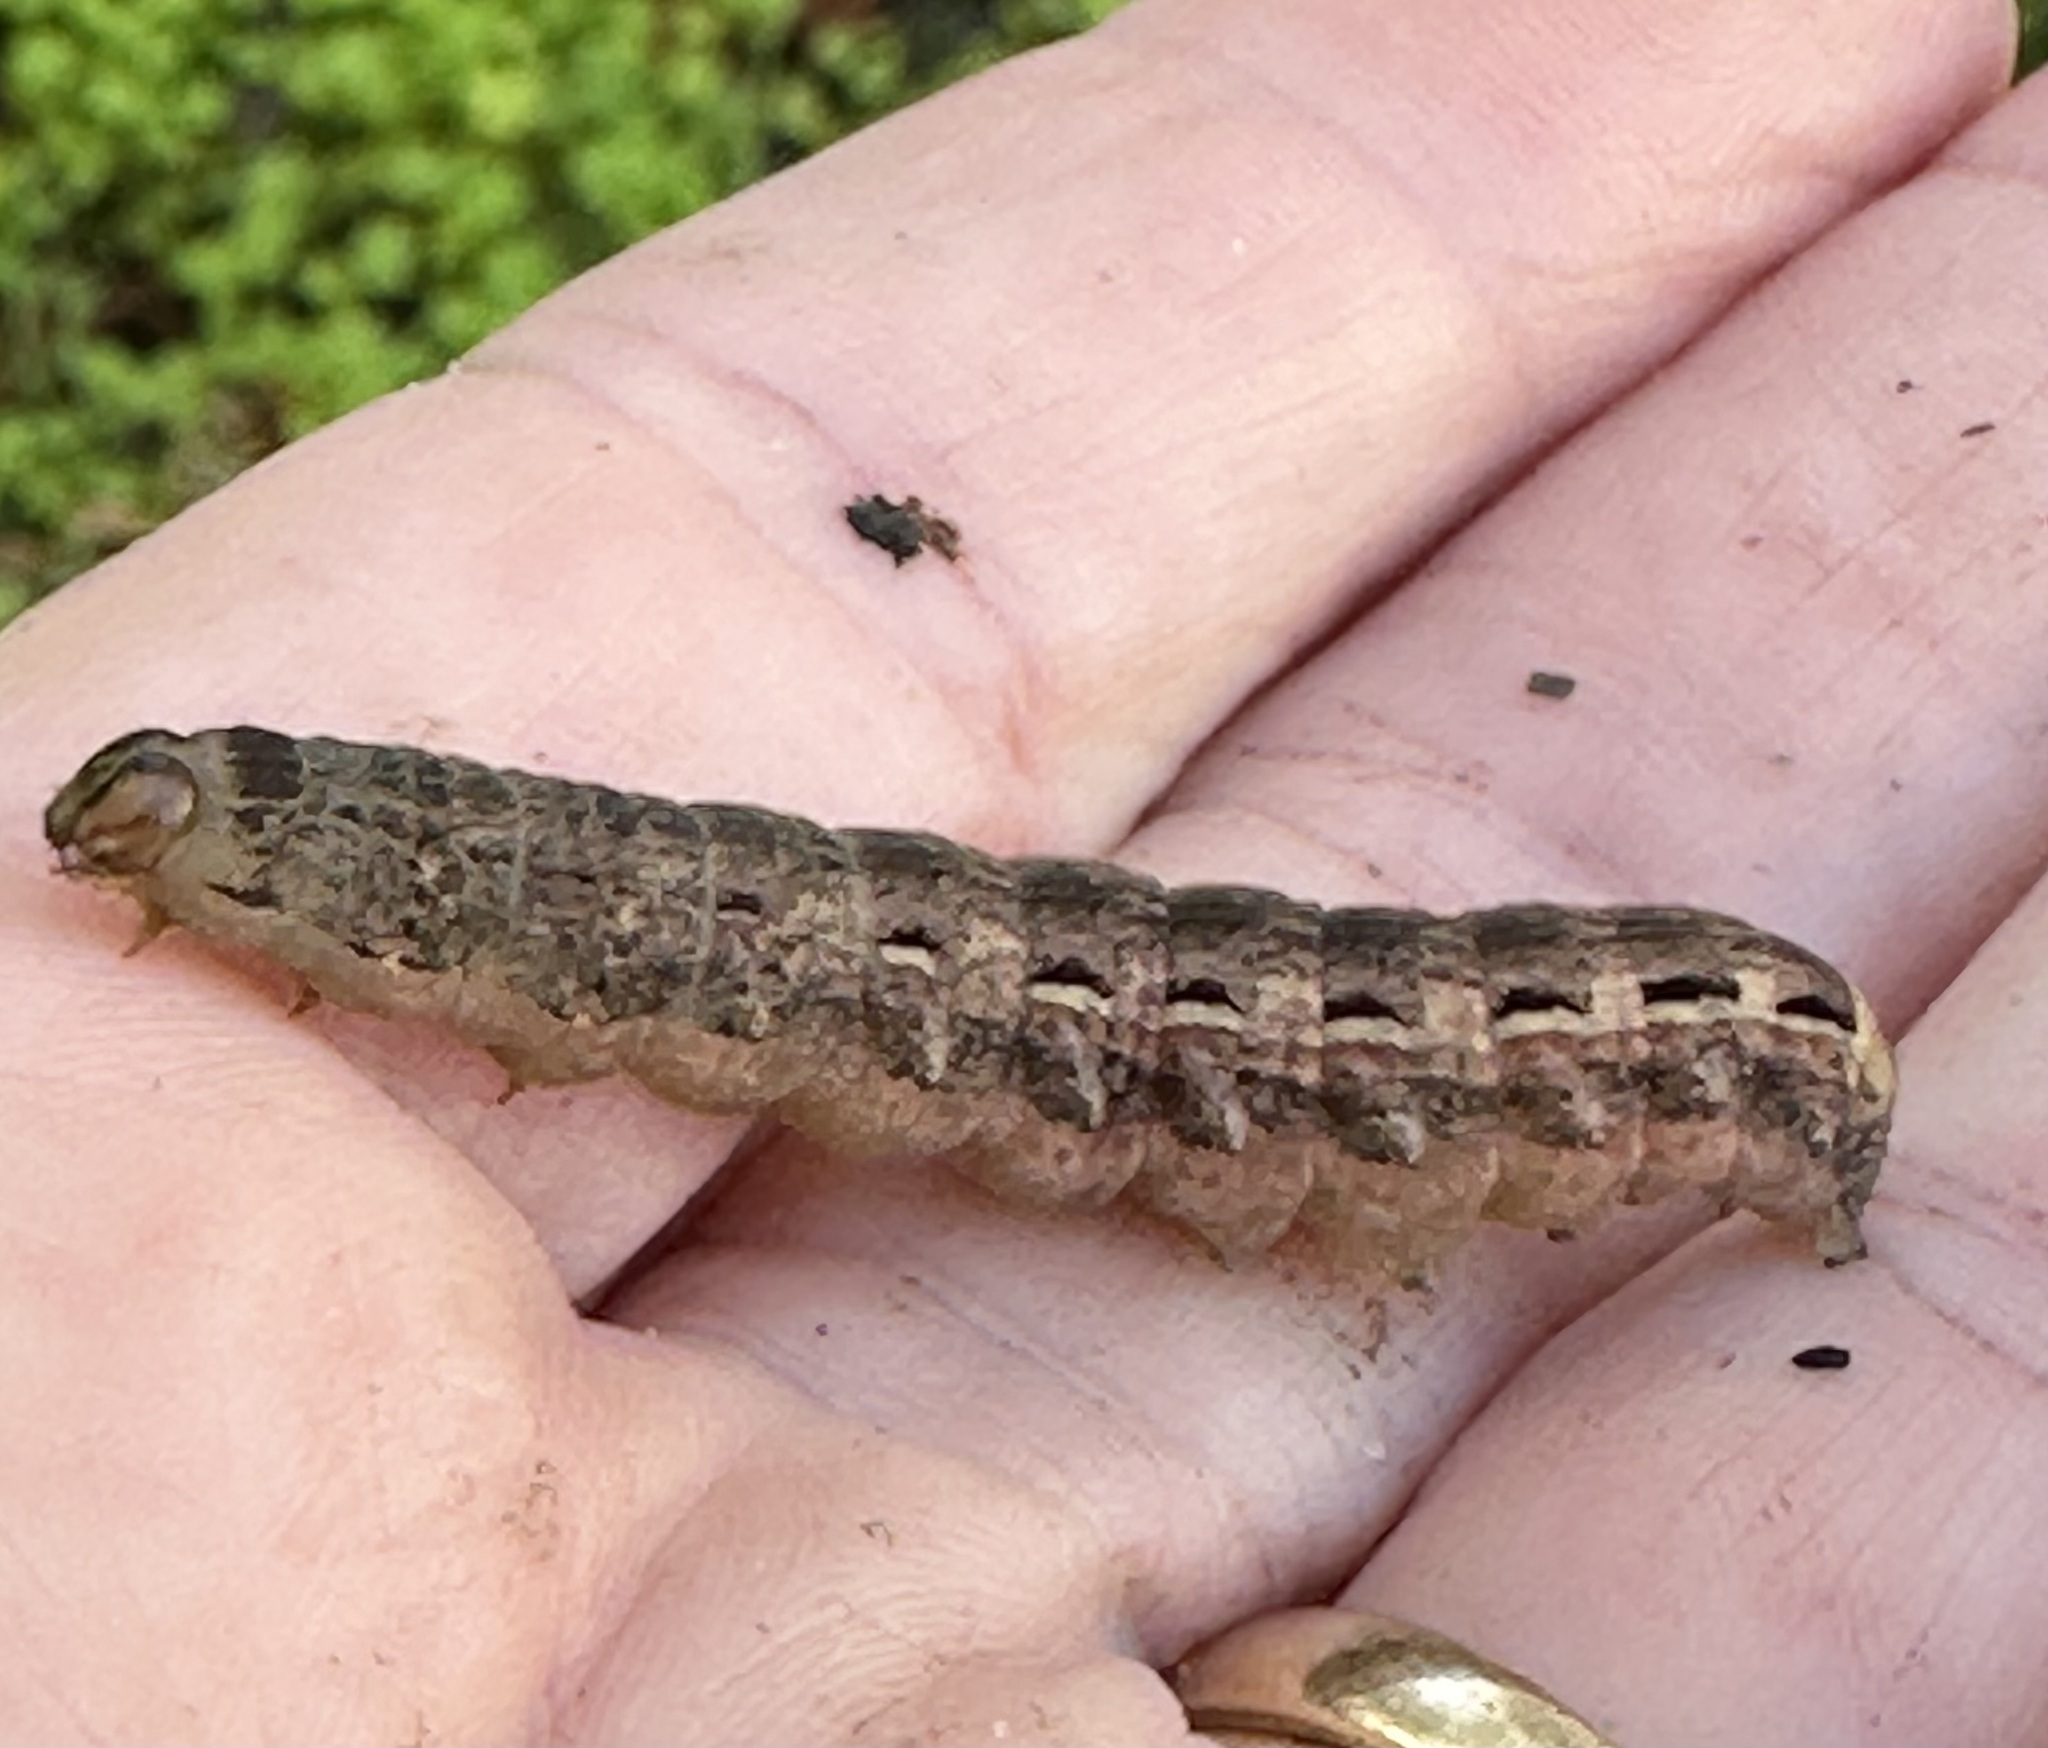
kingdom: Animalia
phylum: Arthropoda
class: Insecta
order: Lepidoptera
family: Noctuidae
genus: Noctua
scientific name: Noctua pronuba
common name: Large yellow underwing
